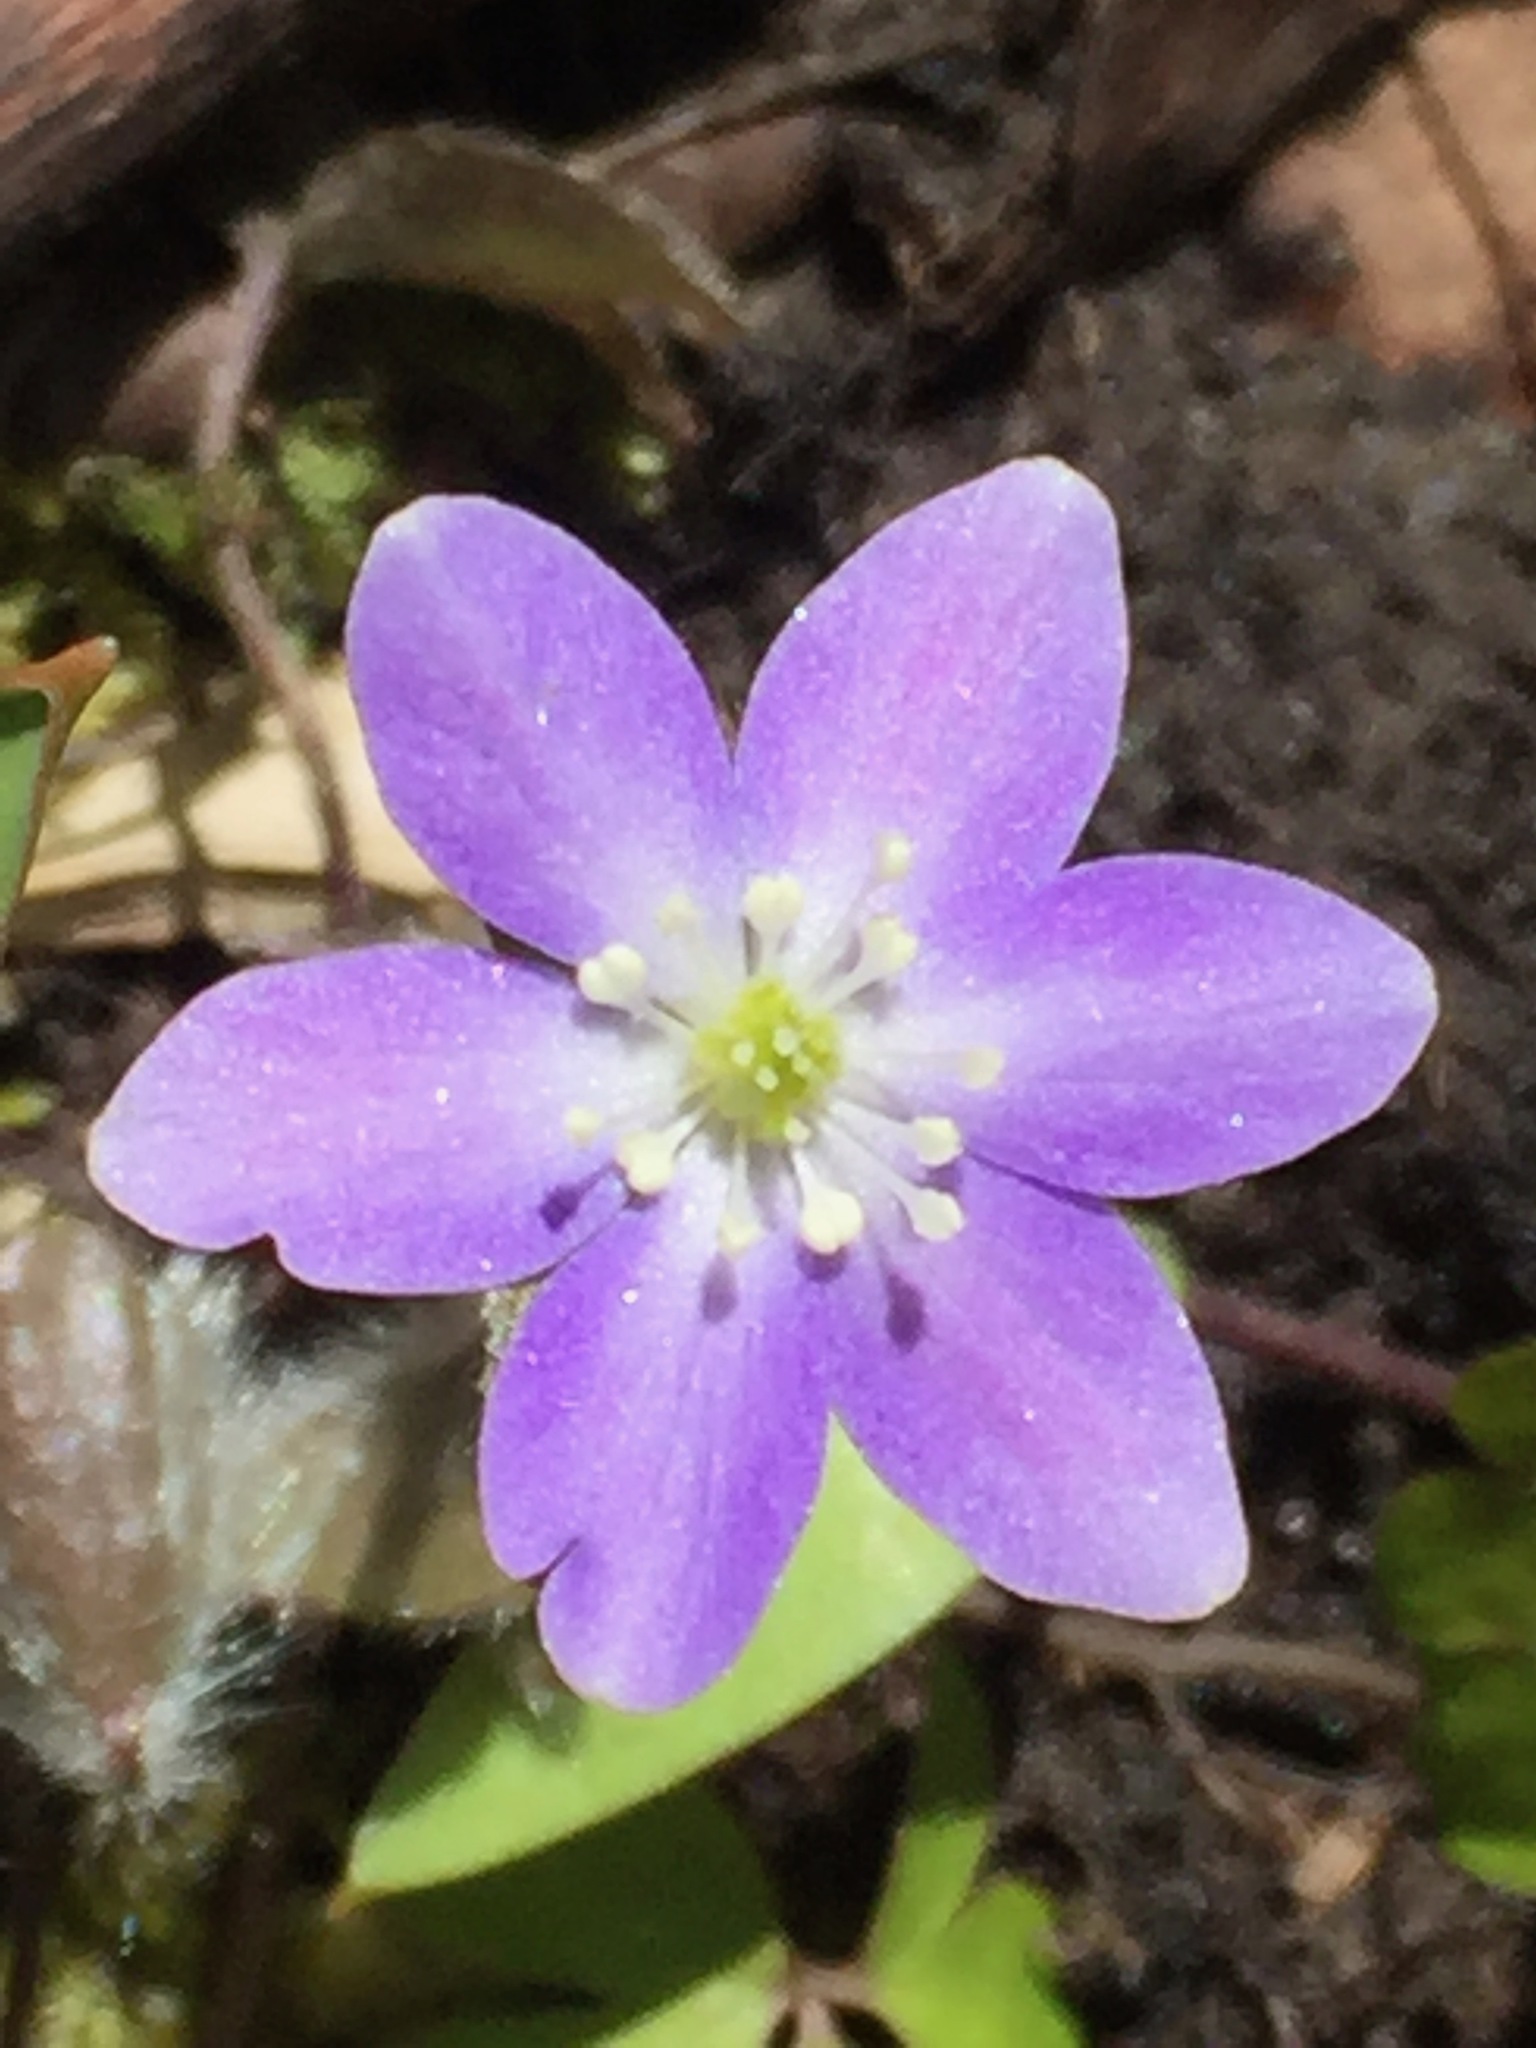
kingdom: Plantae
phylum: Tracheophyta
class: Magnoliopsida
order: Ranunculales
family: Ranunculaceae
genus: Hepatica
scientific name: Hepatica americana
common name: American hepatica
